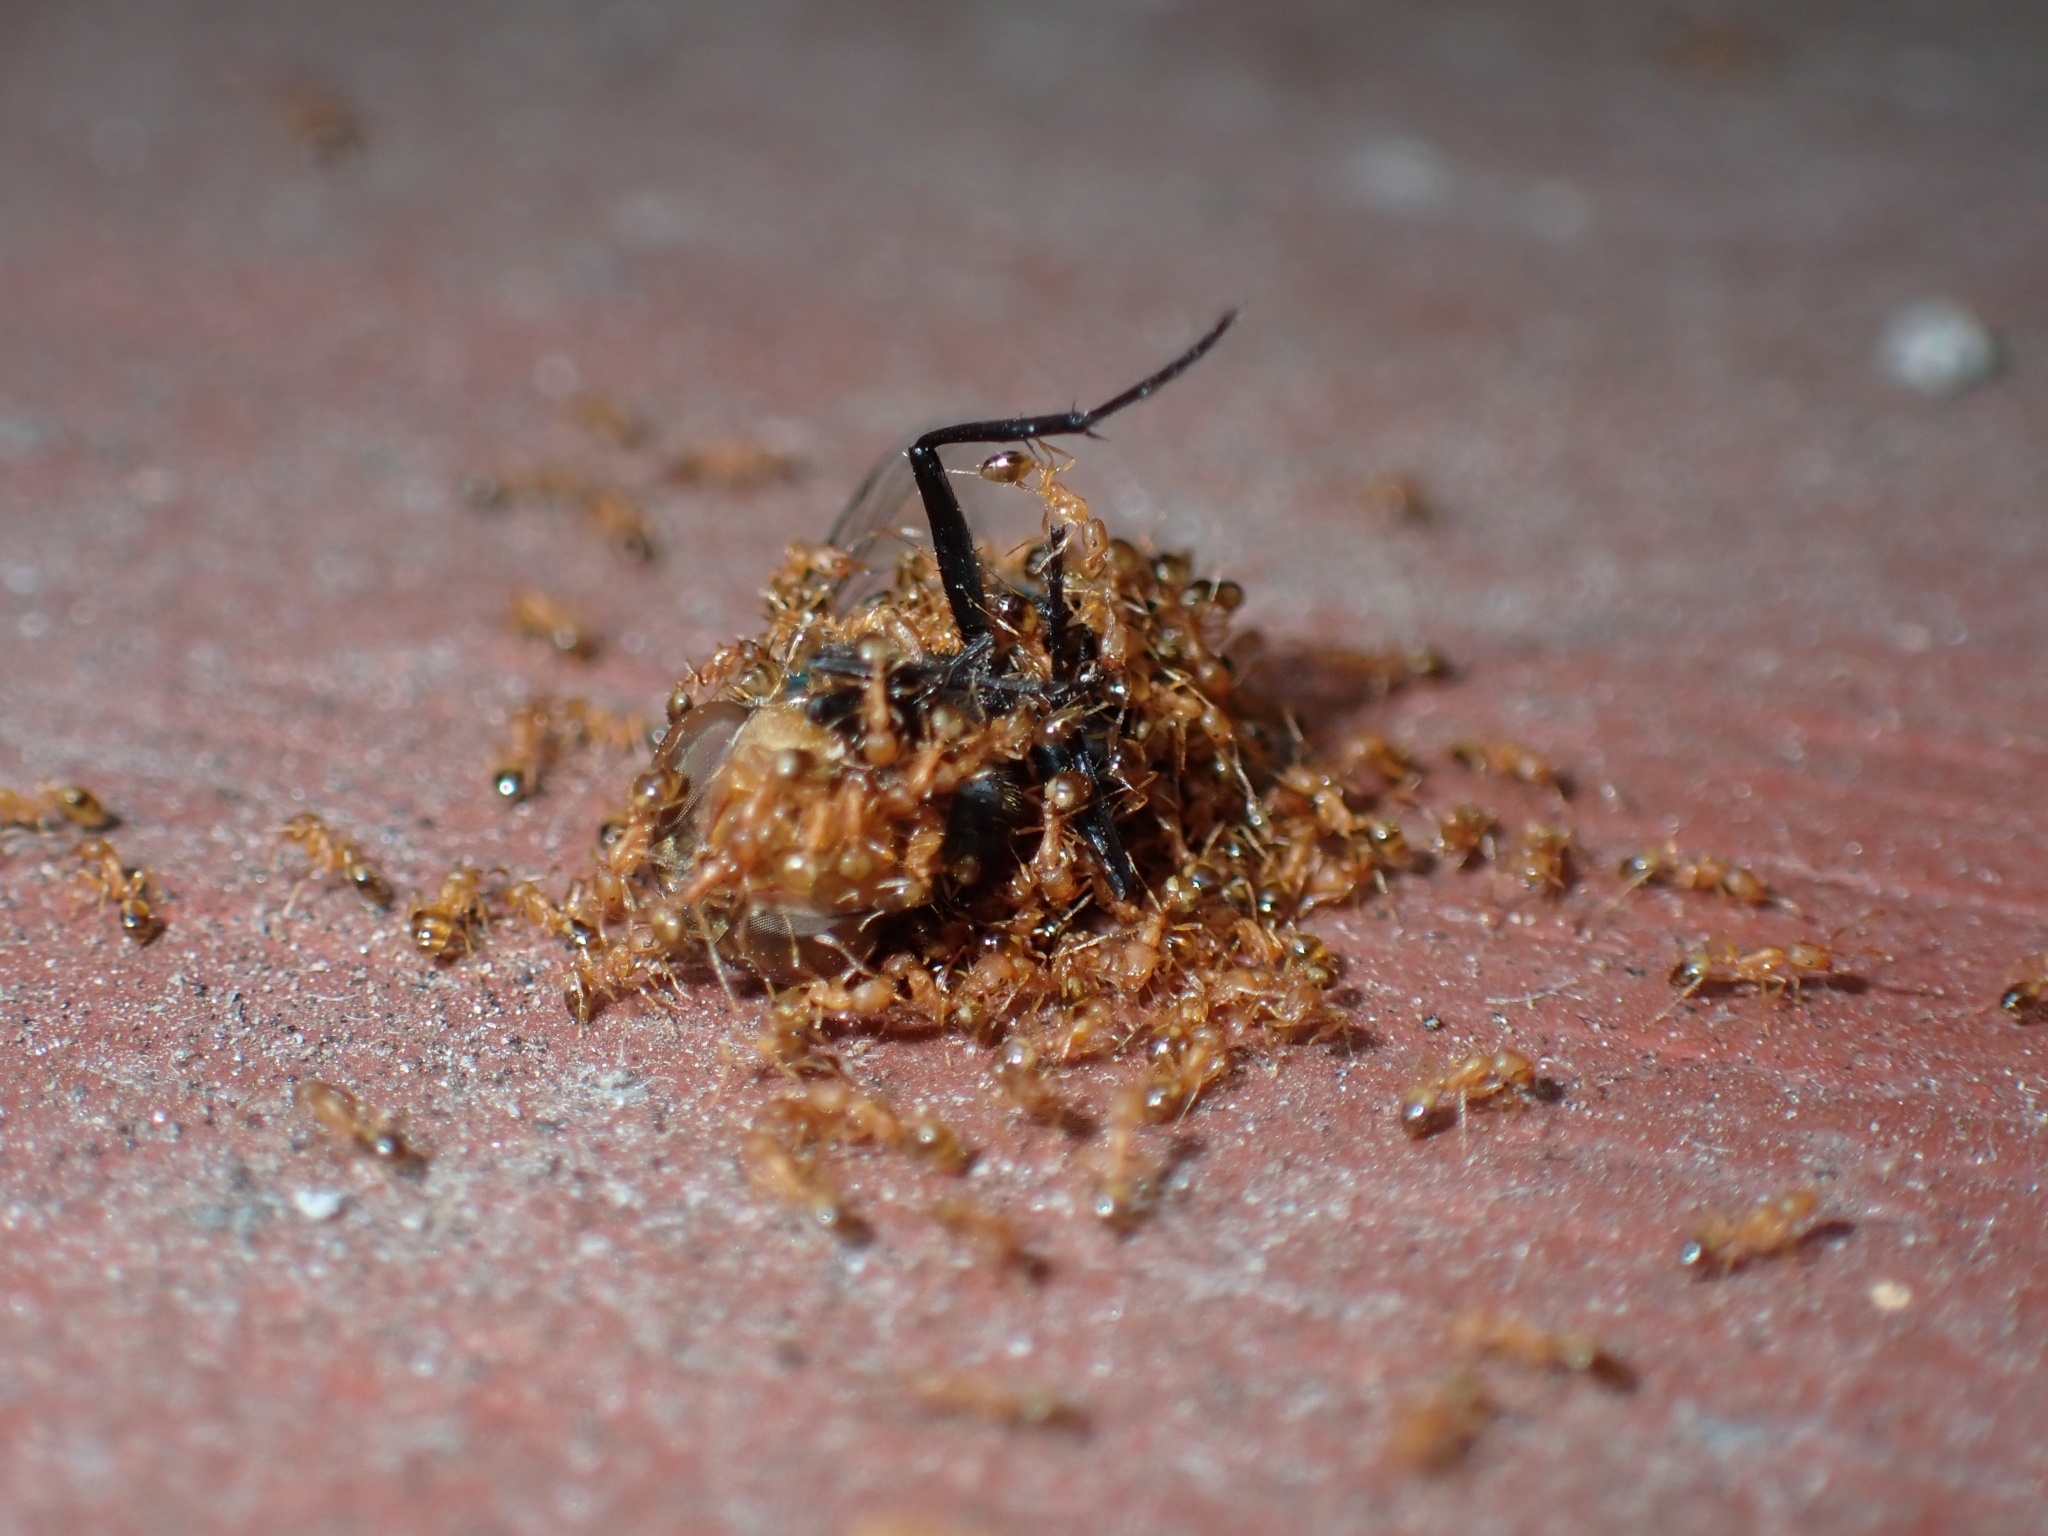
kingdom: Animalia
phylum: Arthropoda
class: Insecta
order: Hymenoptera
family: Formicidae
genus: Monomorium
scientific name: Monomorium pharaonis
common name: Pharaoh ant
